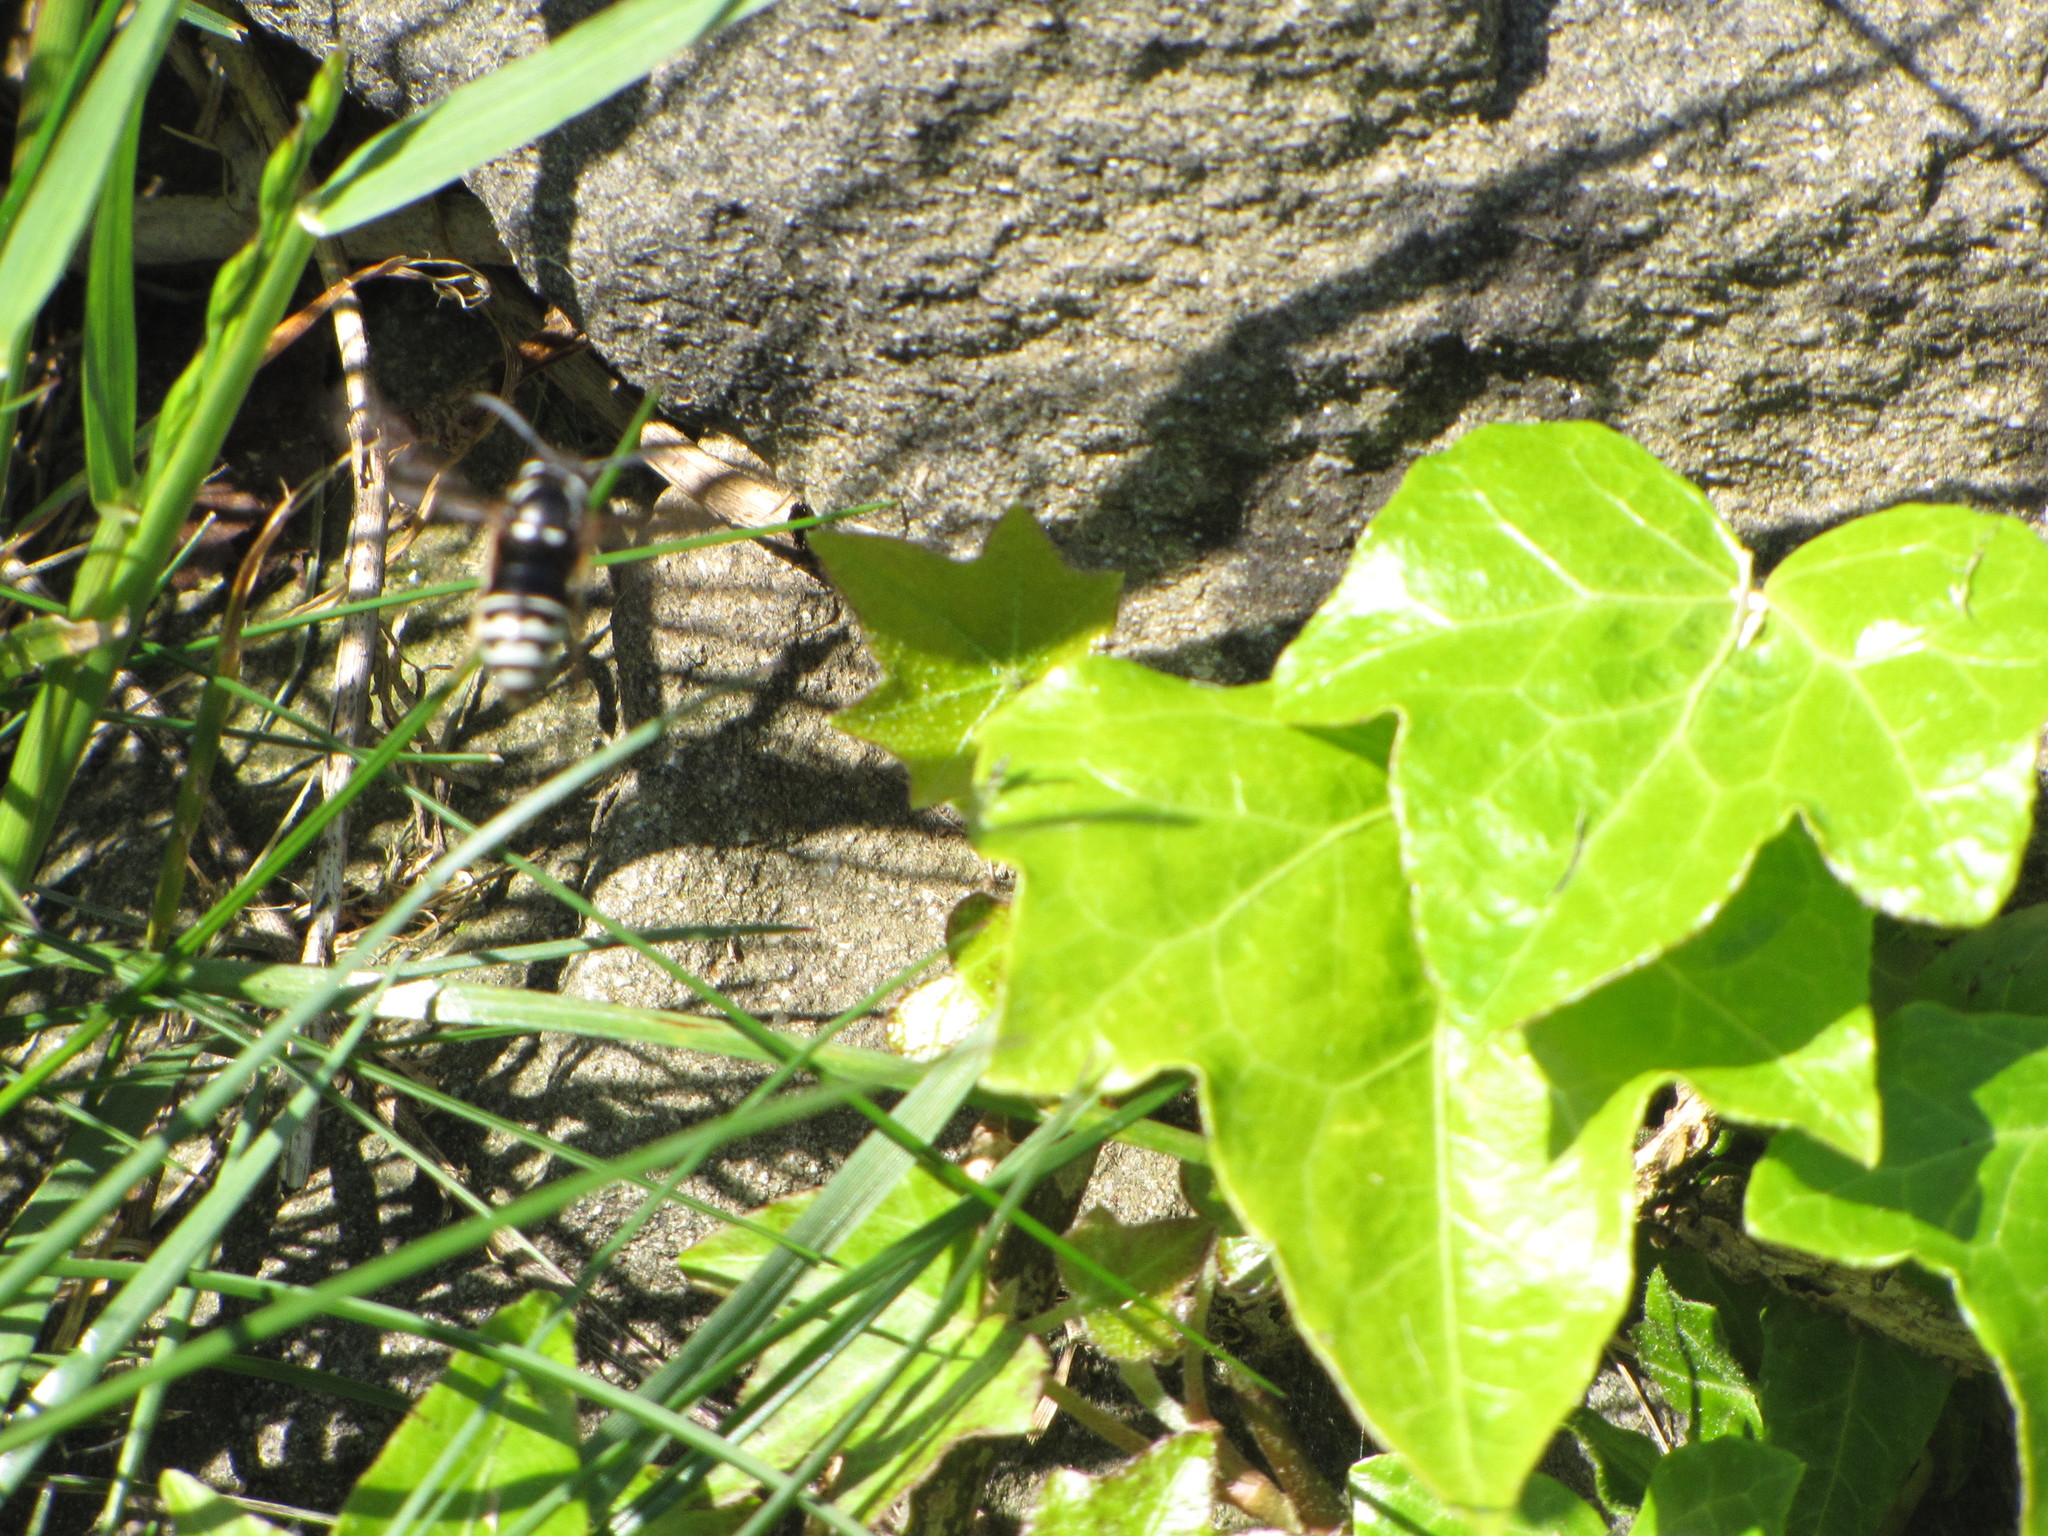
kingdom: Animalia
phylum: Arthropoda
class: Insecta
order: Hymenoptera
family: Vespidae
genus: Vespula
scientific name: Vespula consobrina
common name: Blackjacket
